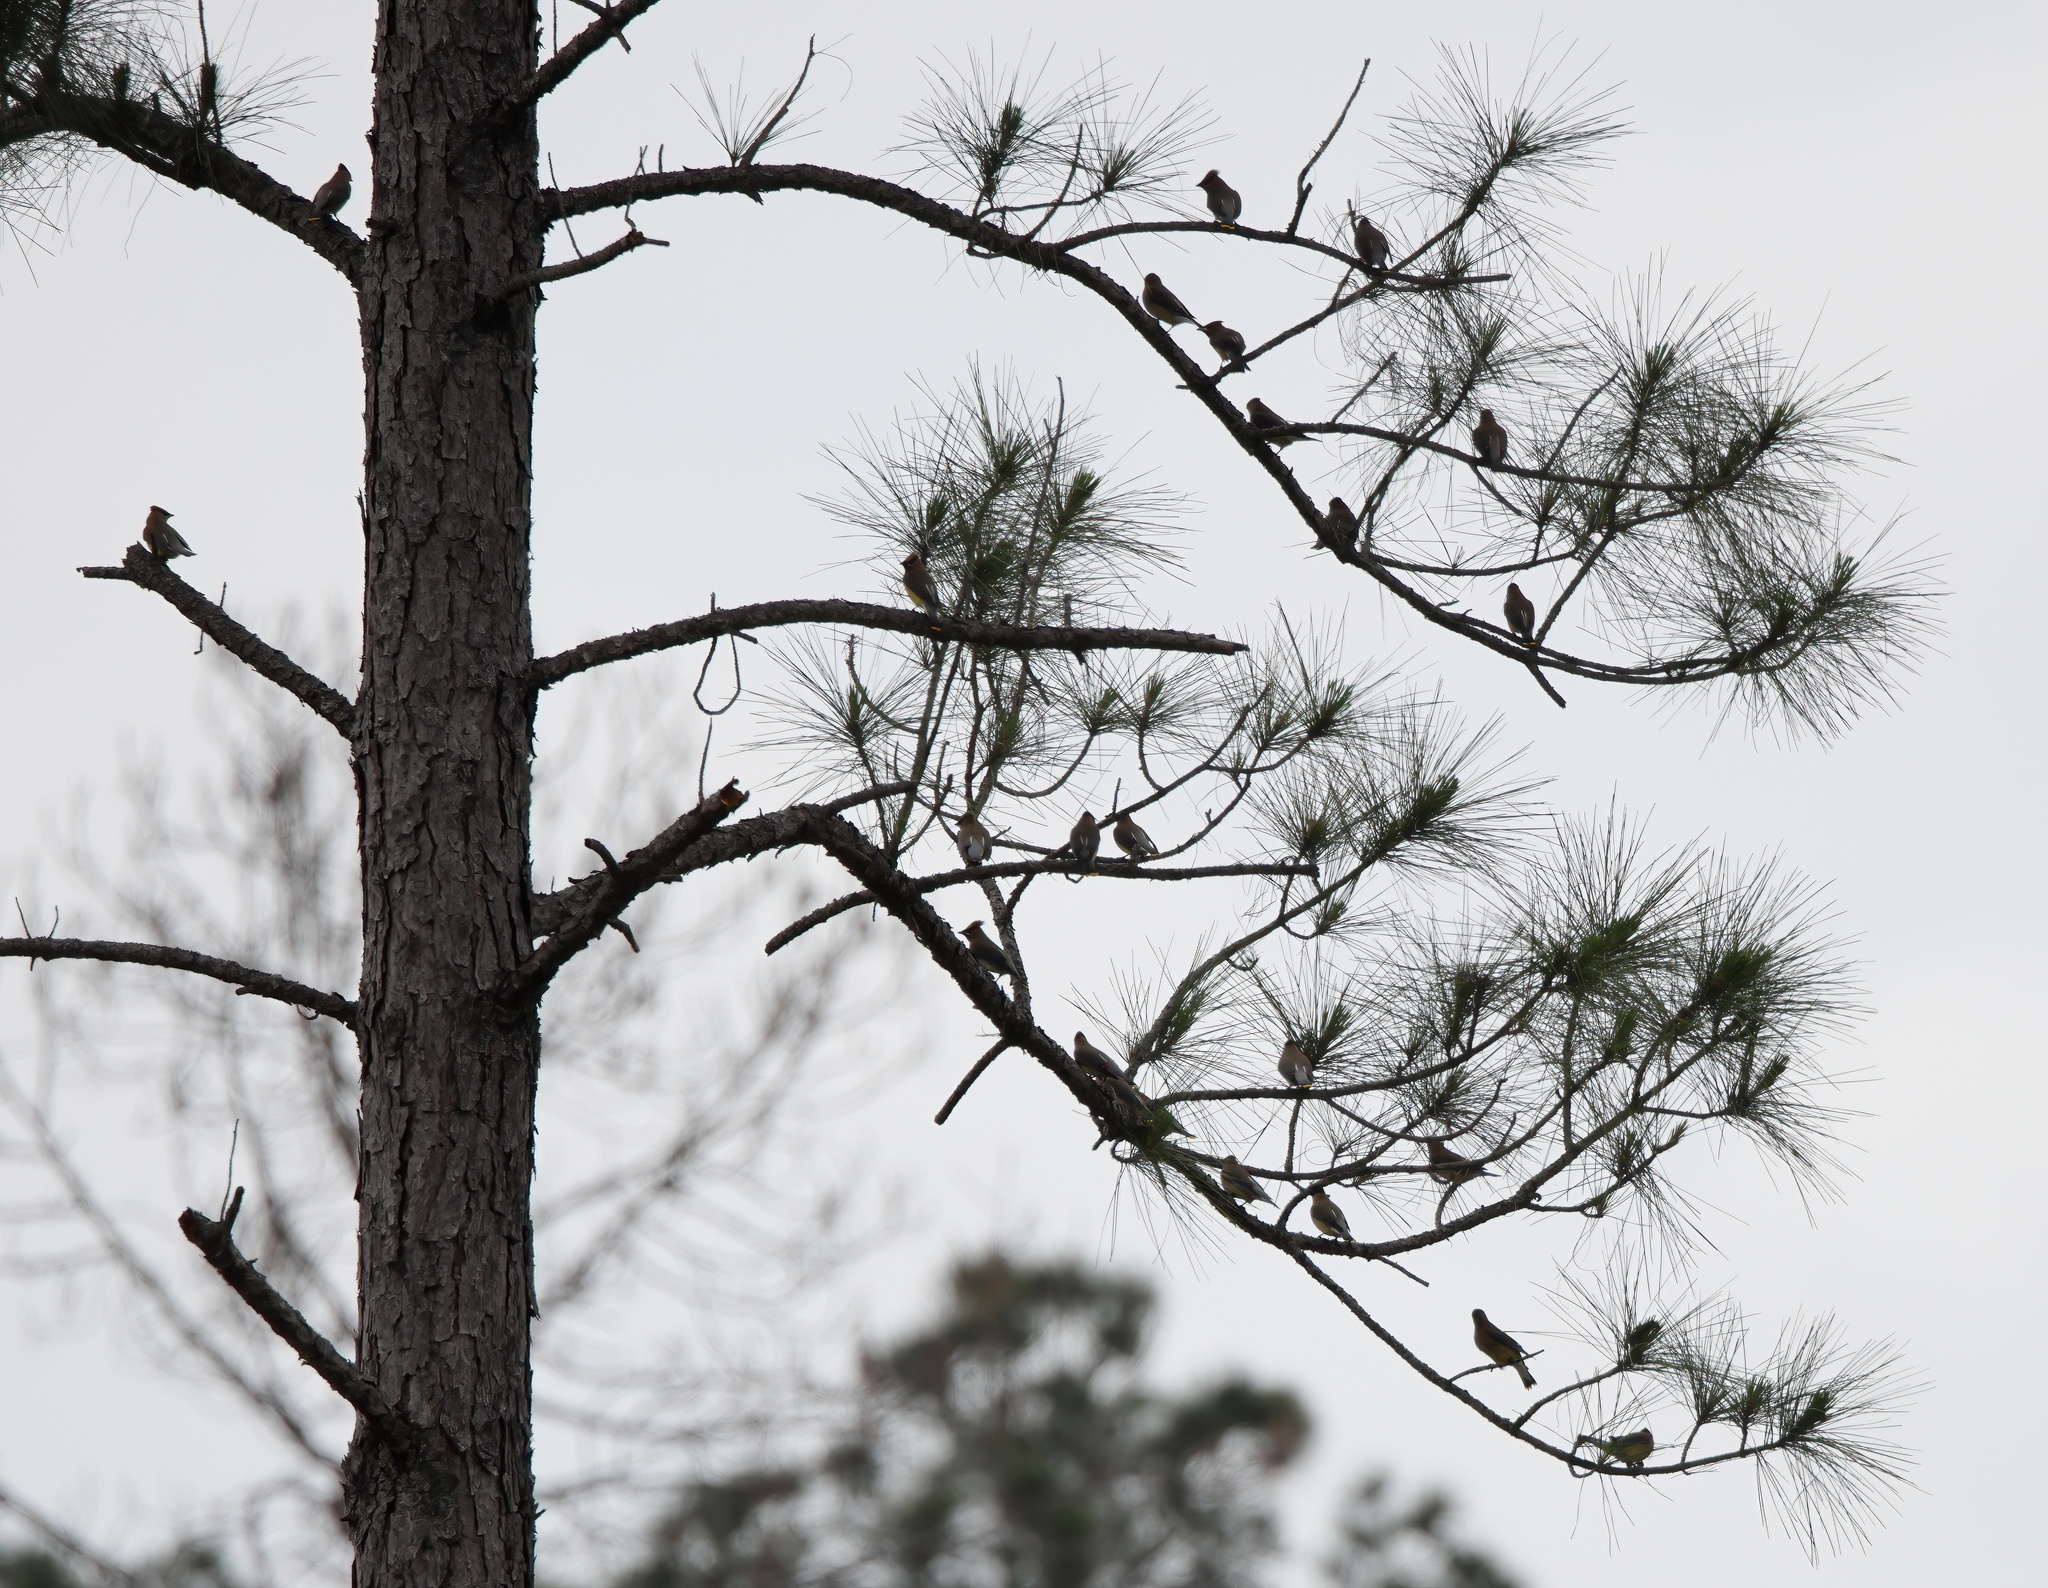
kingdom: Animalia
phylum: Chordata
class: Aves
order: Passeriformes
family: Bombycillidae
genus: Bombycilla
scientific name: Bombycilla cedrorum
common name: Cedar waxwing
